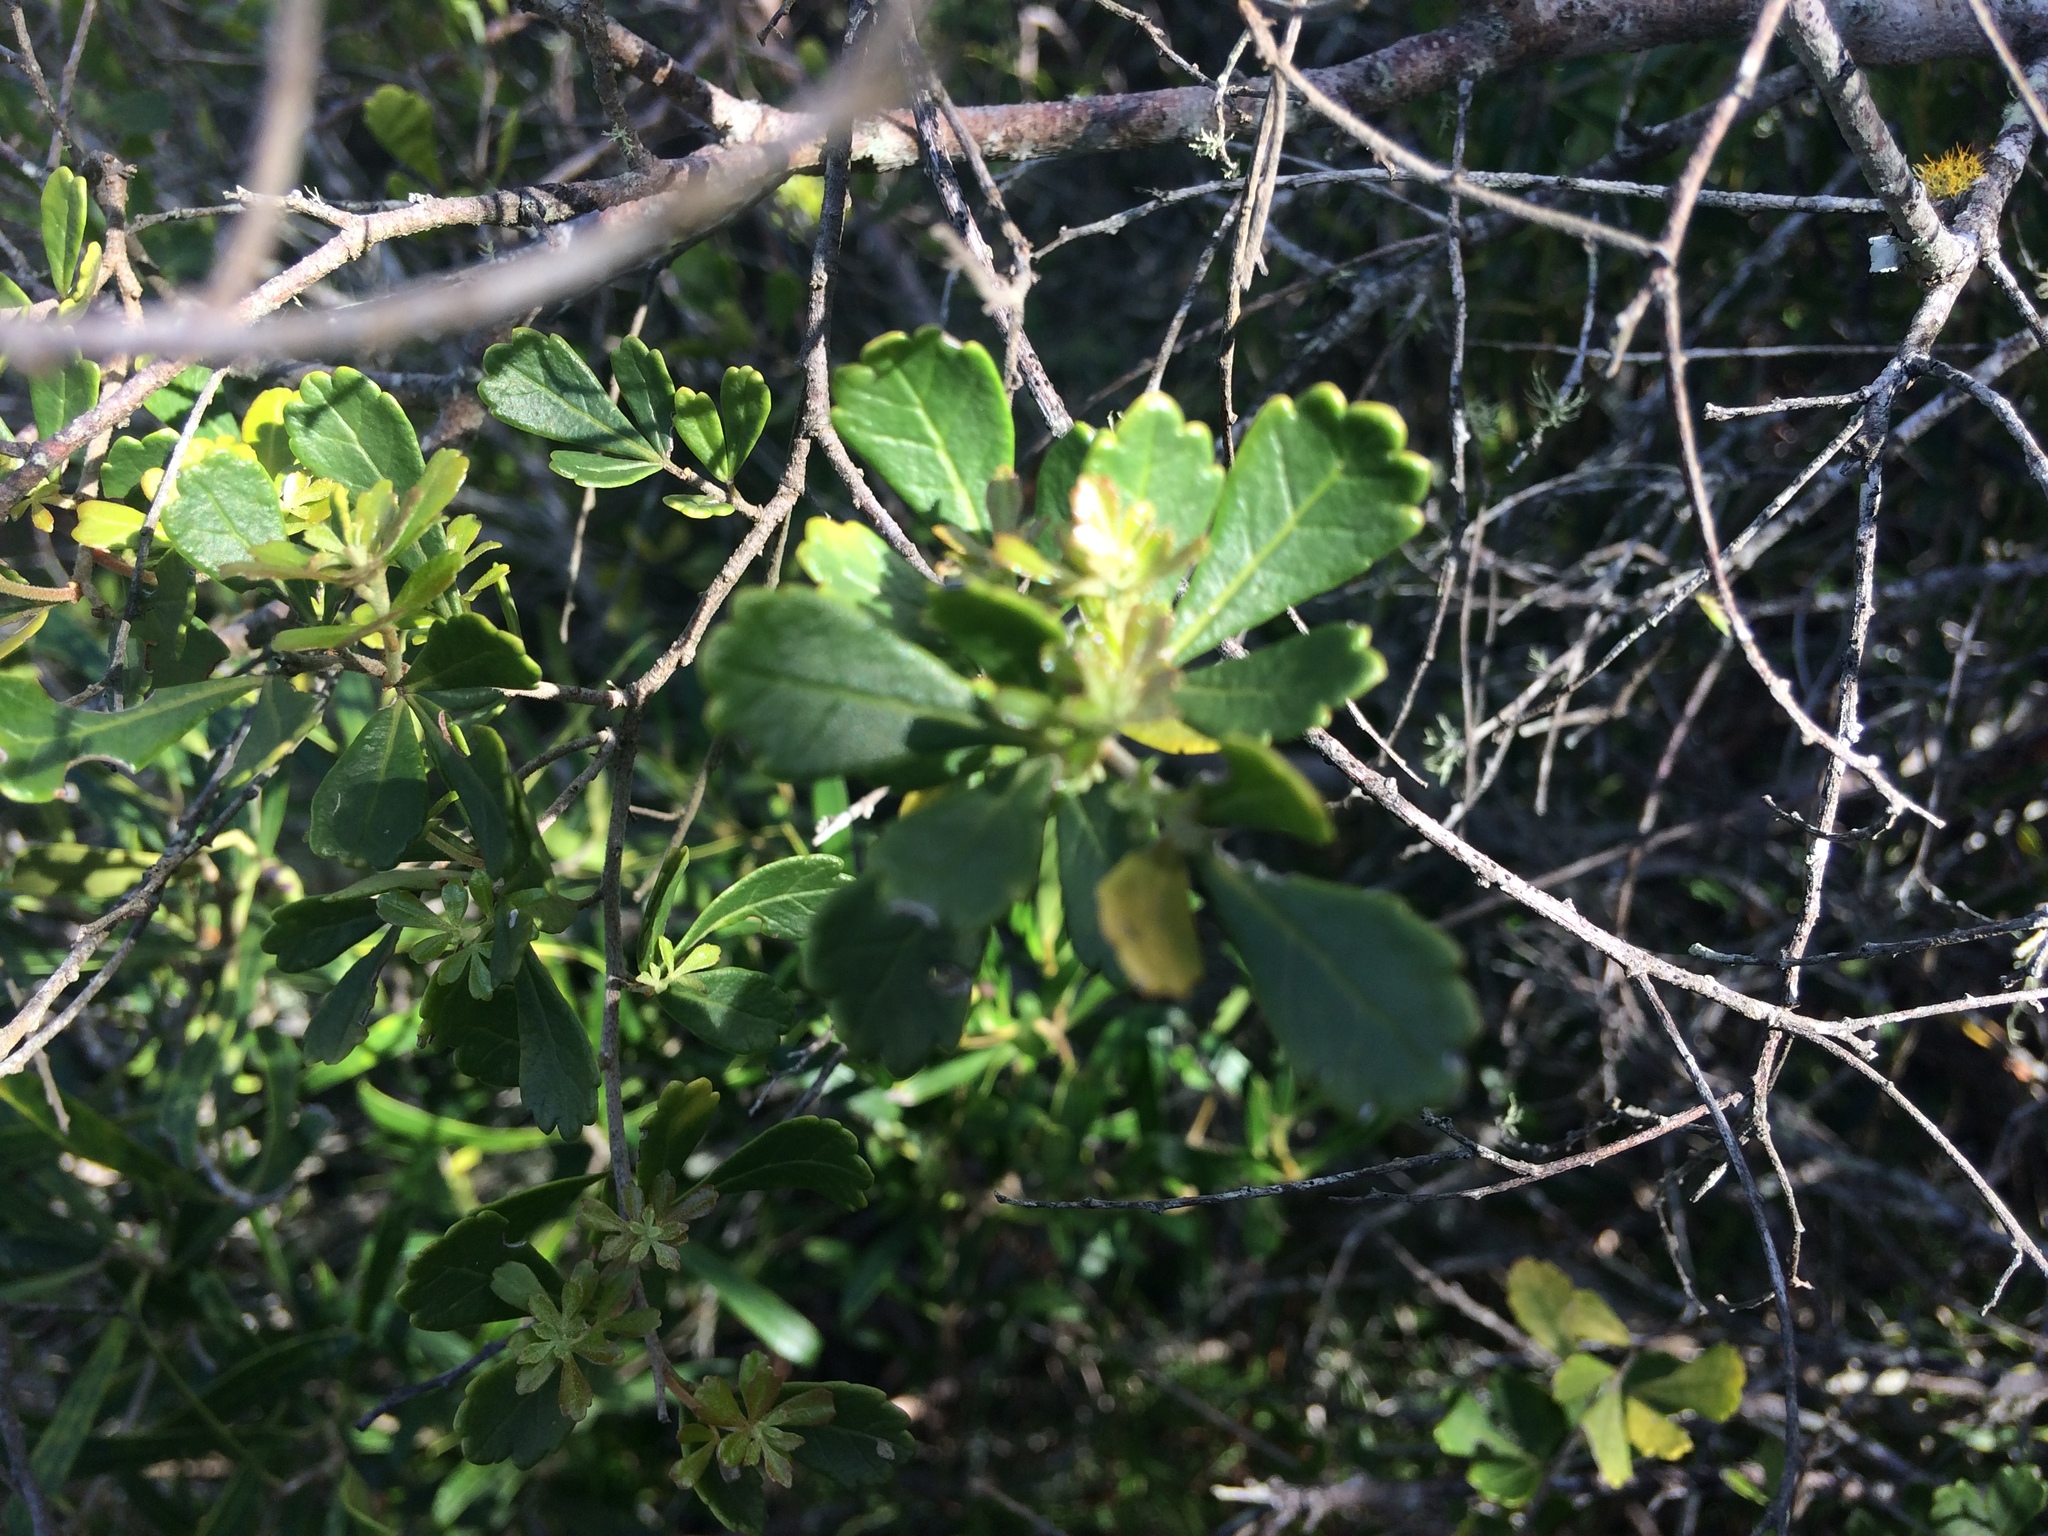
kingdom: Plantae
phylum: Tracheophyta
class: Magnoliopsida
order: Sapindales
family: Anacardiaceae
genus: Searsia
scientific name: Searsia crenata
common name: Crowberry
